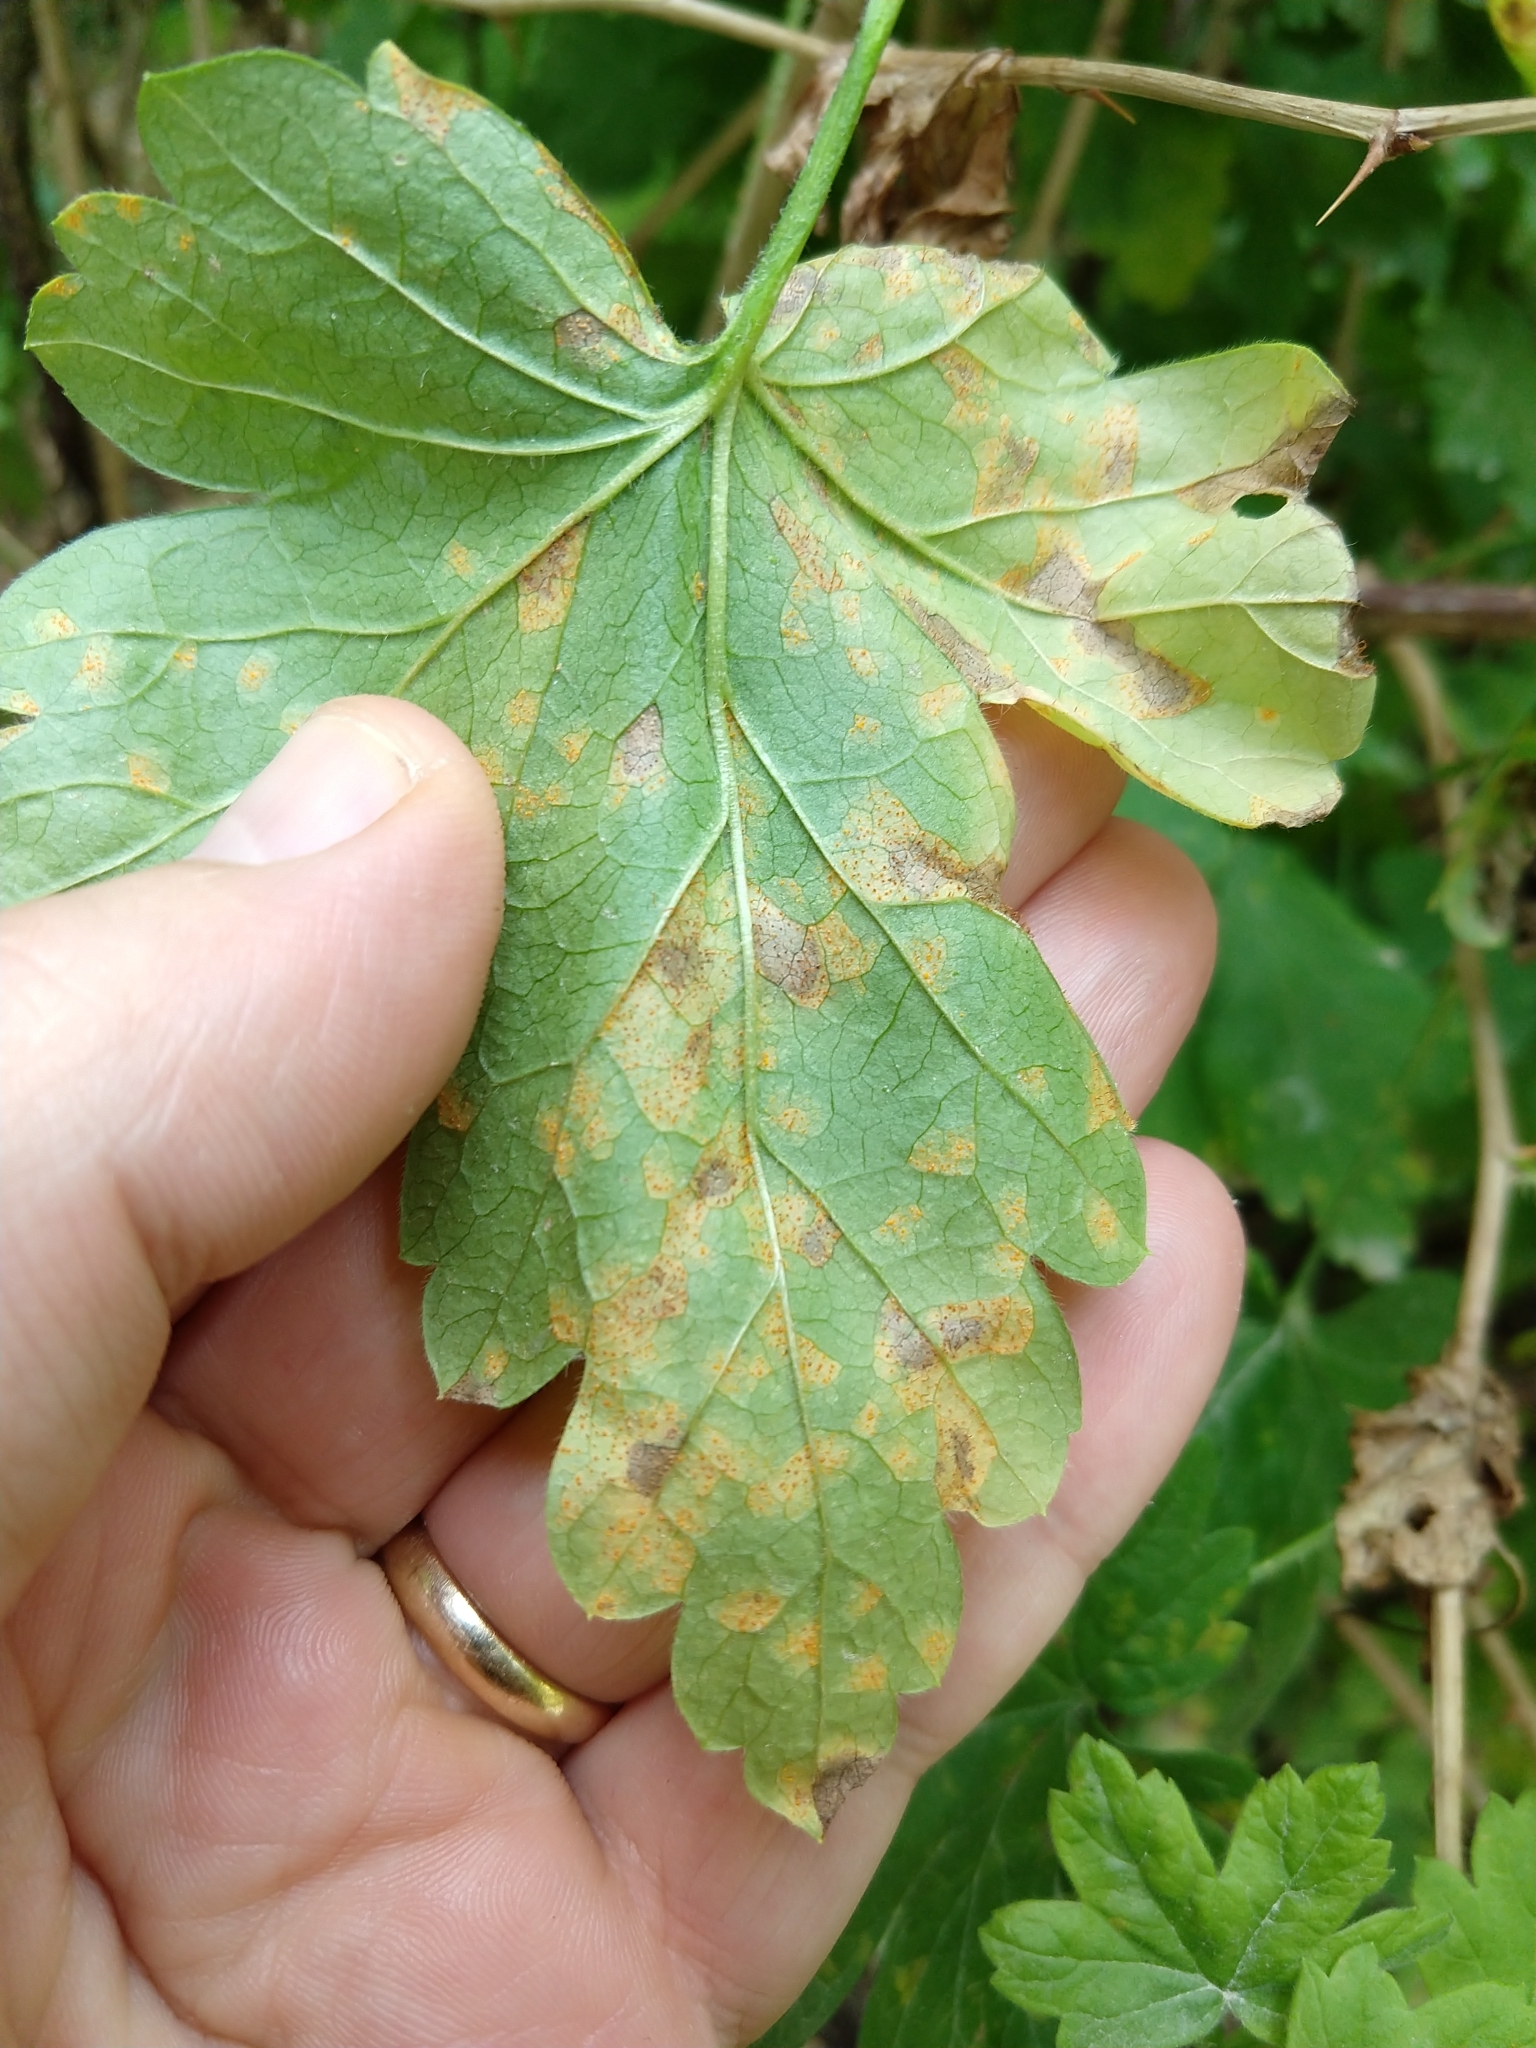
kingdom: Fungi
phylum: Basidiomycota
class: Pucciniomycetes
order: Pucciniales
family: Cronartiaceae
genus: Cronartium
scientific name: Cronartium ribicola
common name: White pine blister rust
